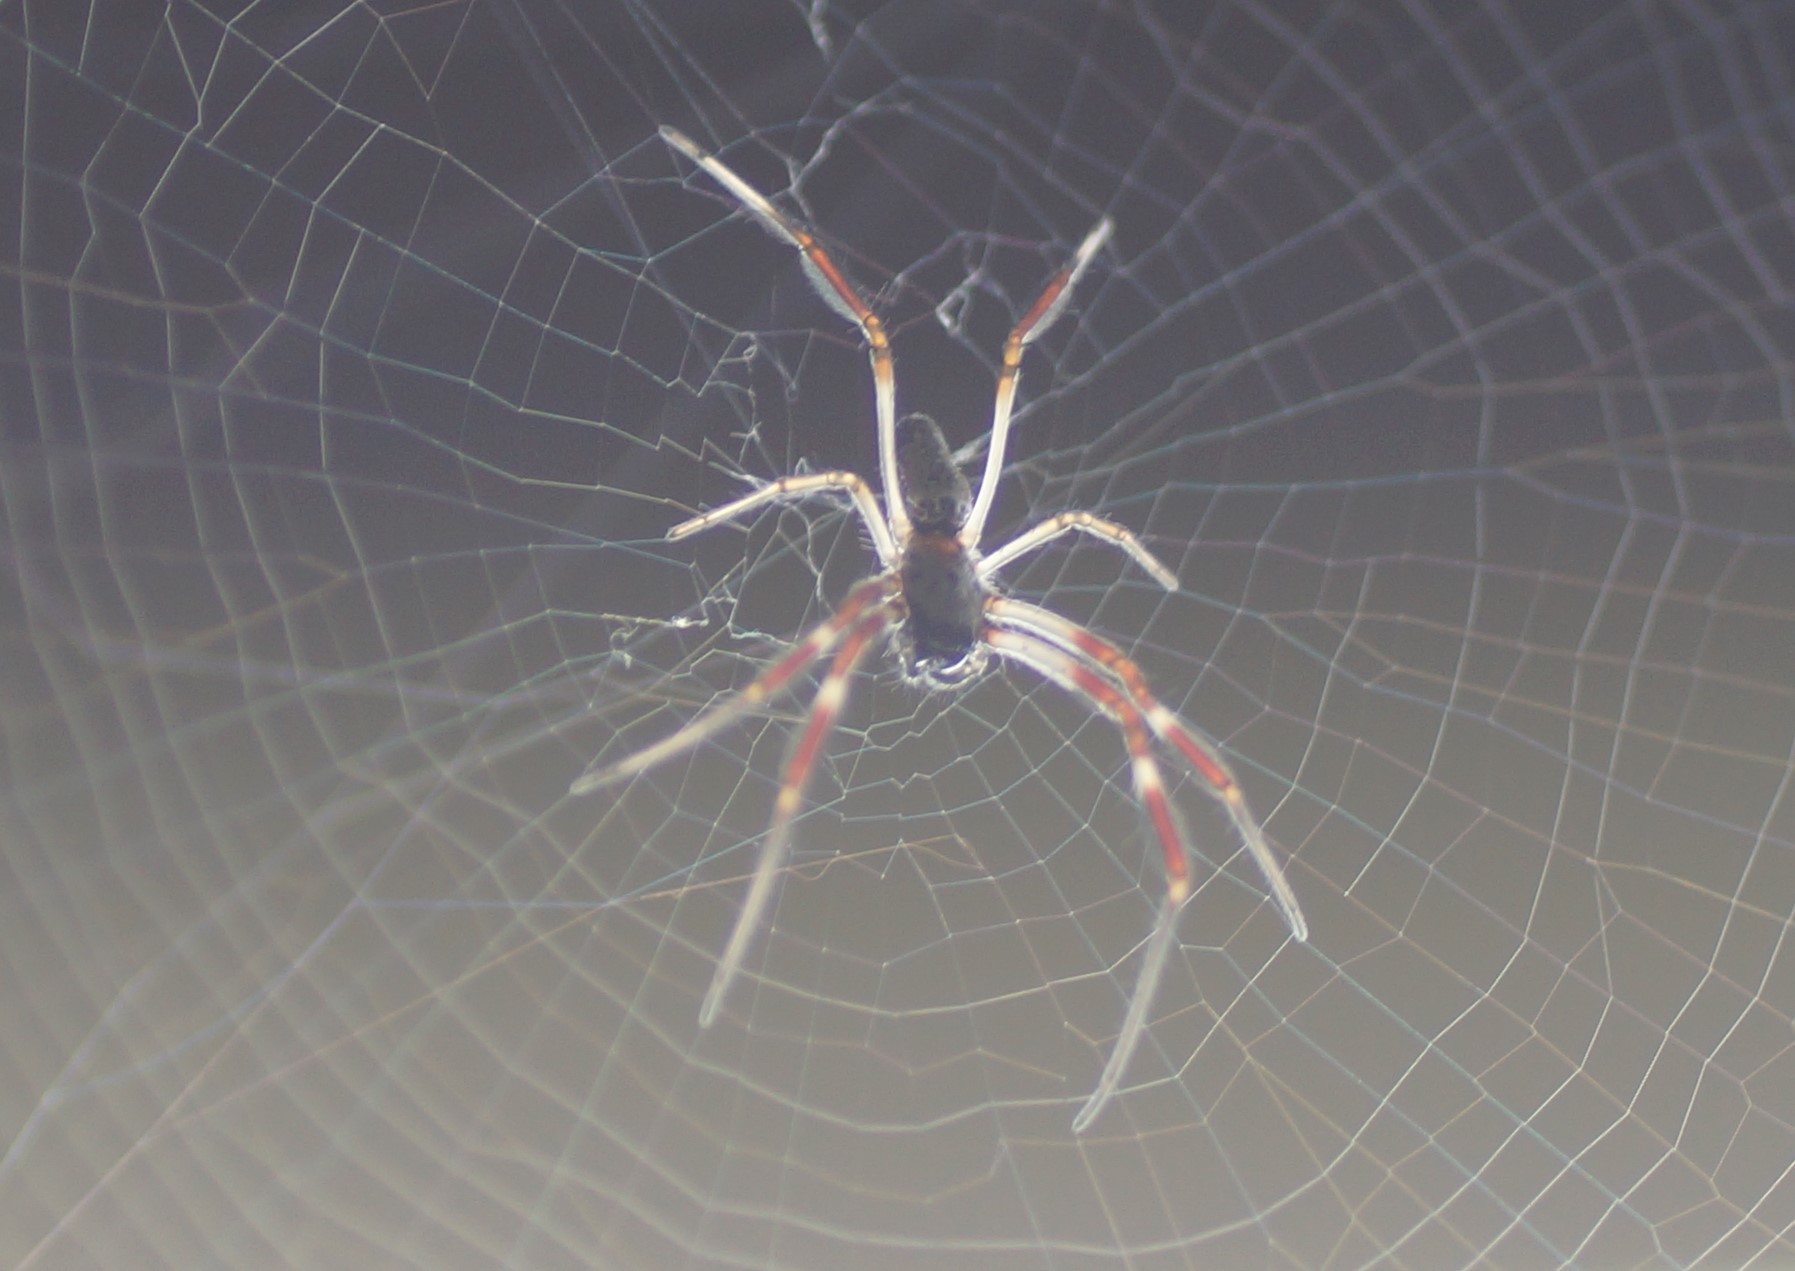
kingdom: Animalia
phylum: Arthropoda
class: Arachnida
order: Araneae
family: Araneidae
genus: Trichonephila
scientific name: Trichonephila edulis
